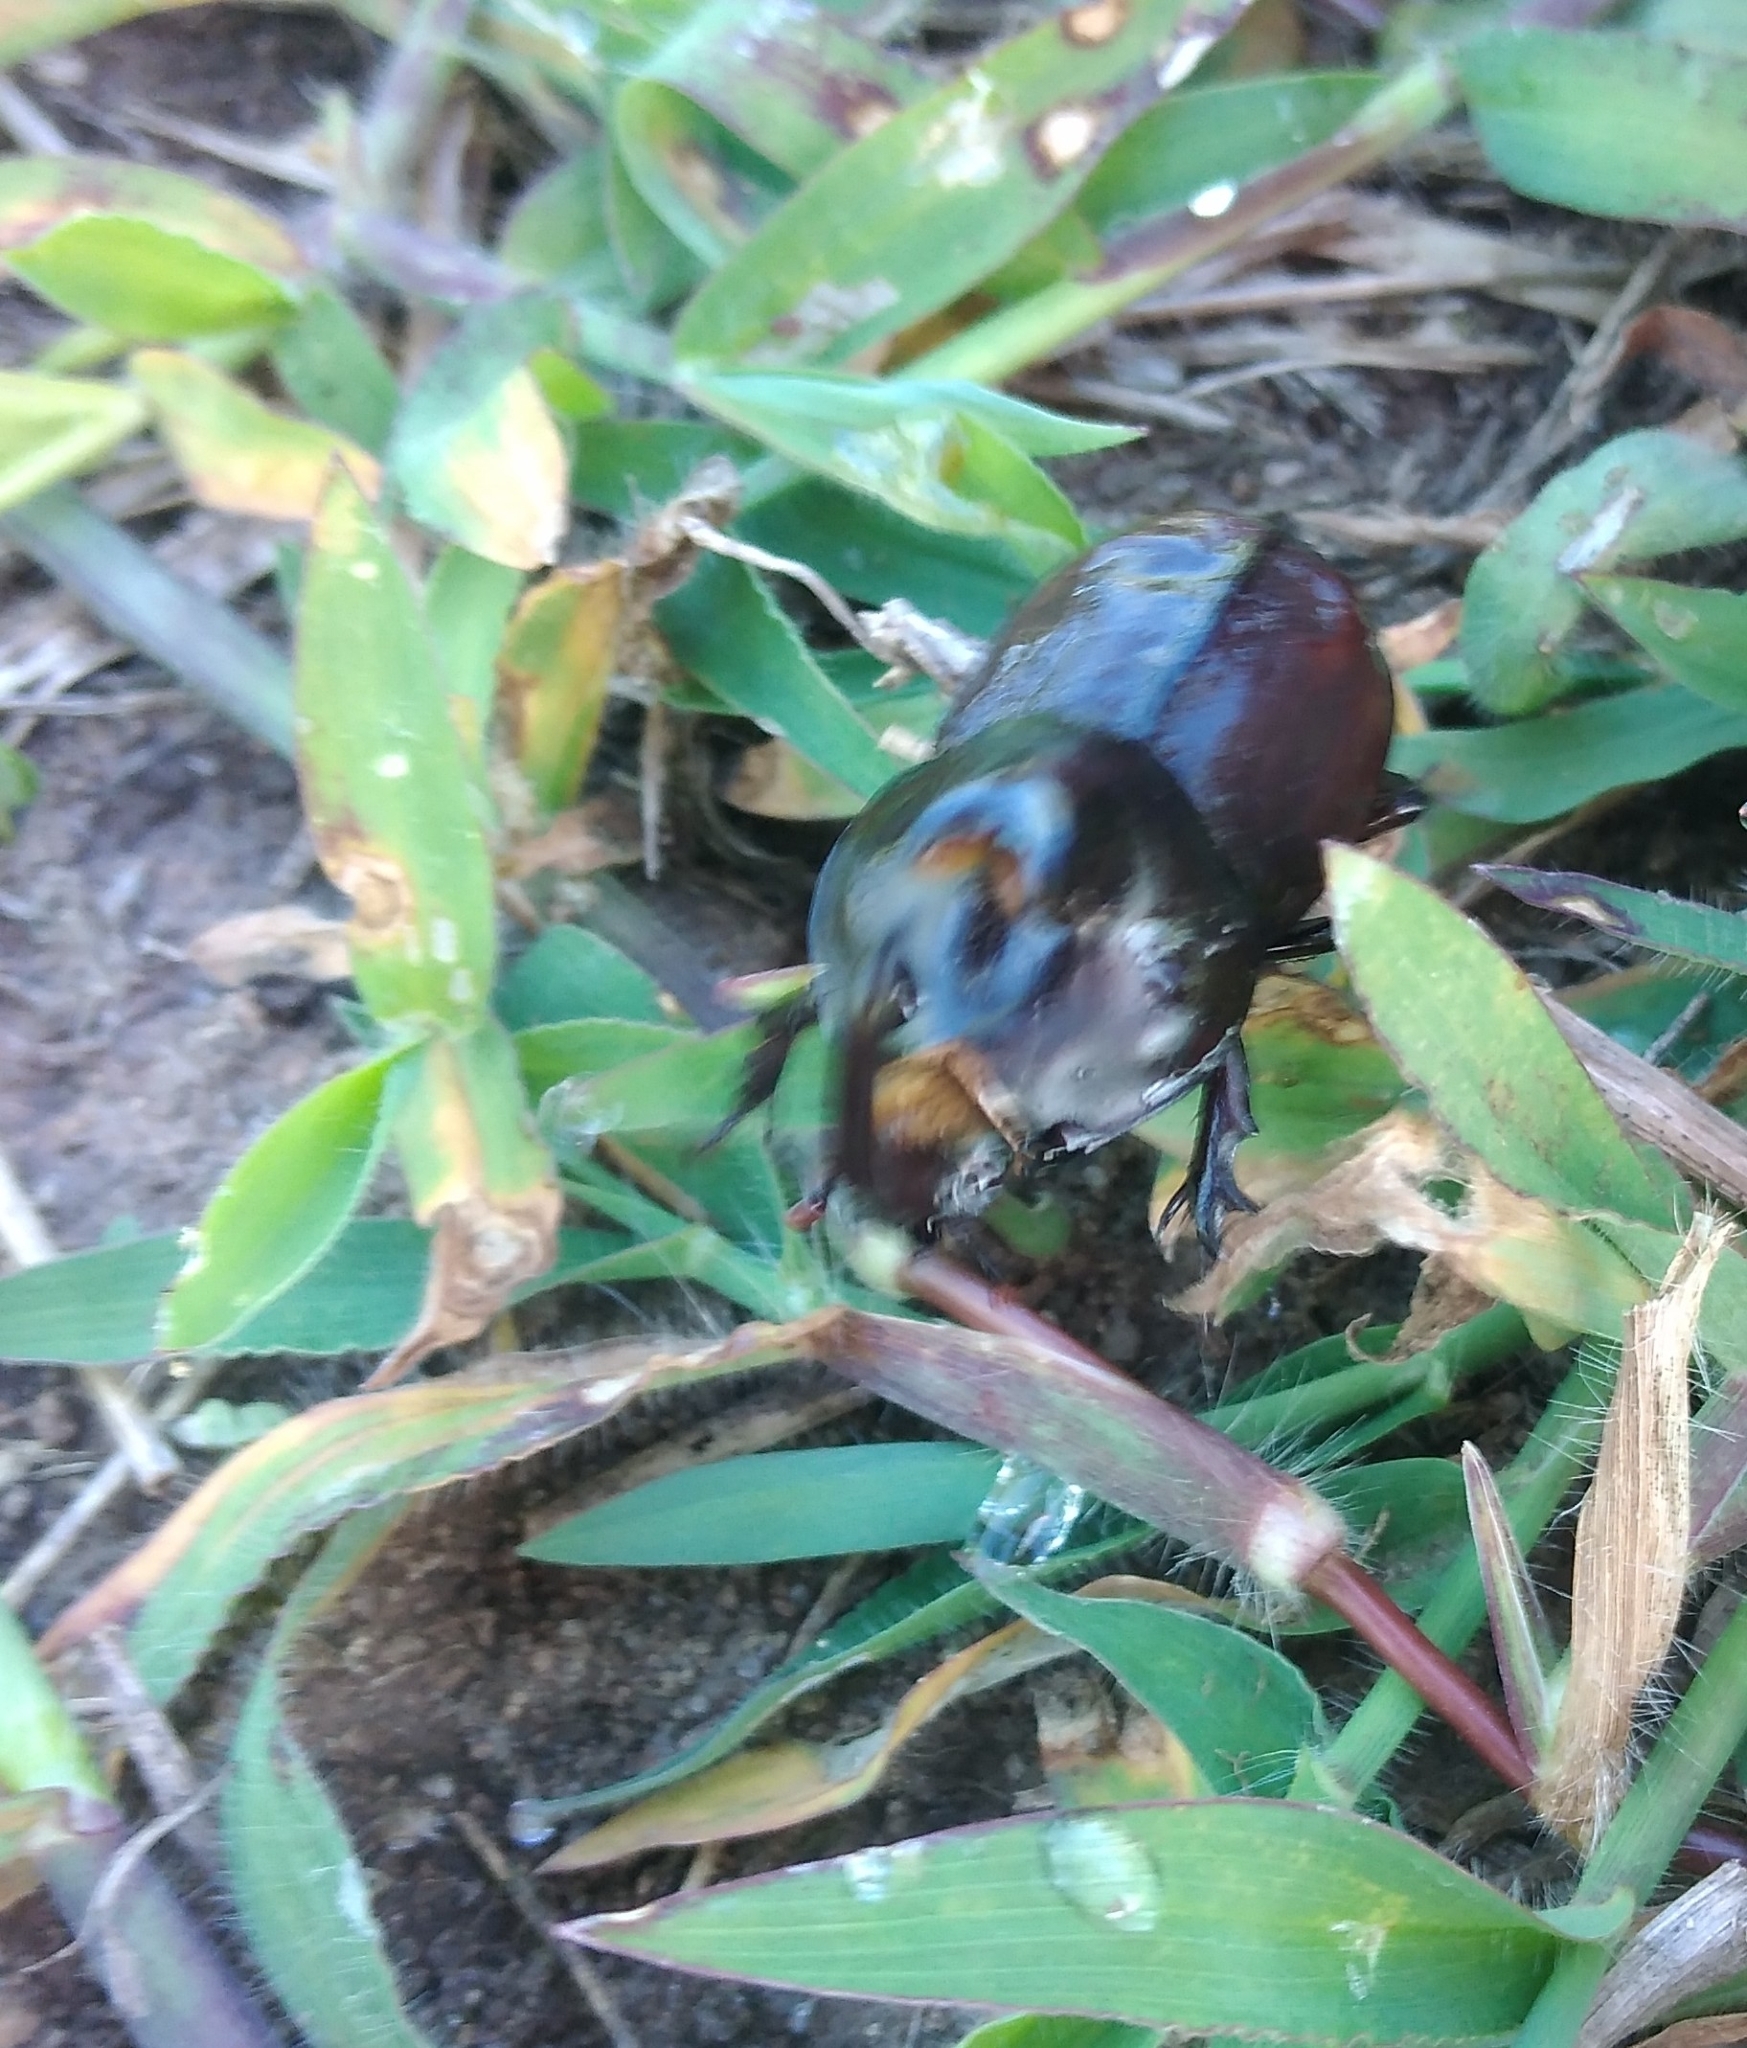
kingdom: Animalia
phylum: Arthropoda
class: Insecta
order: Coleoptera
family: Scarabaeidae
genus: Diloboderus
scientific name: Diloboderus abderus
